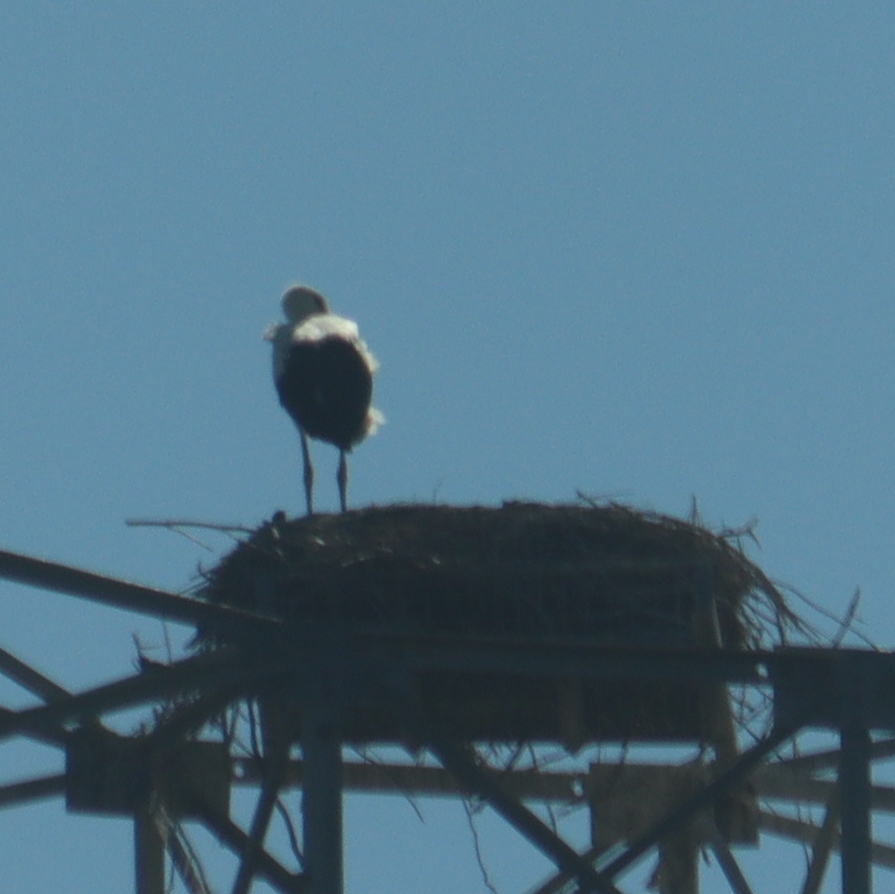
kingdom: Animalia
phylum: Chordata
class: Aves
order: Ciconiiformes
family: Ciconiidae
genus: Ciconia
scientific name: Ciconia ciconia
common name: White stork
